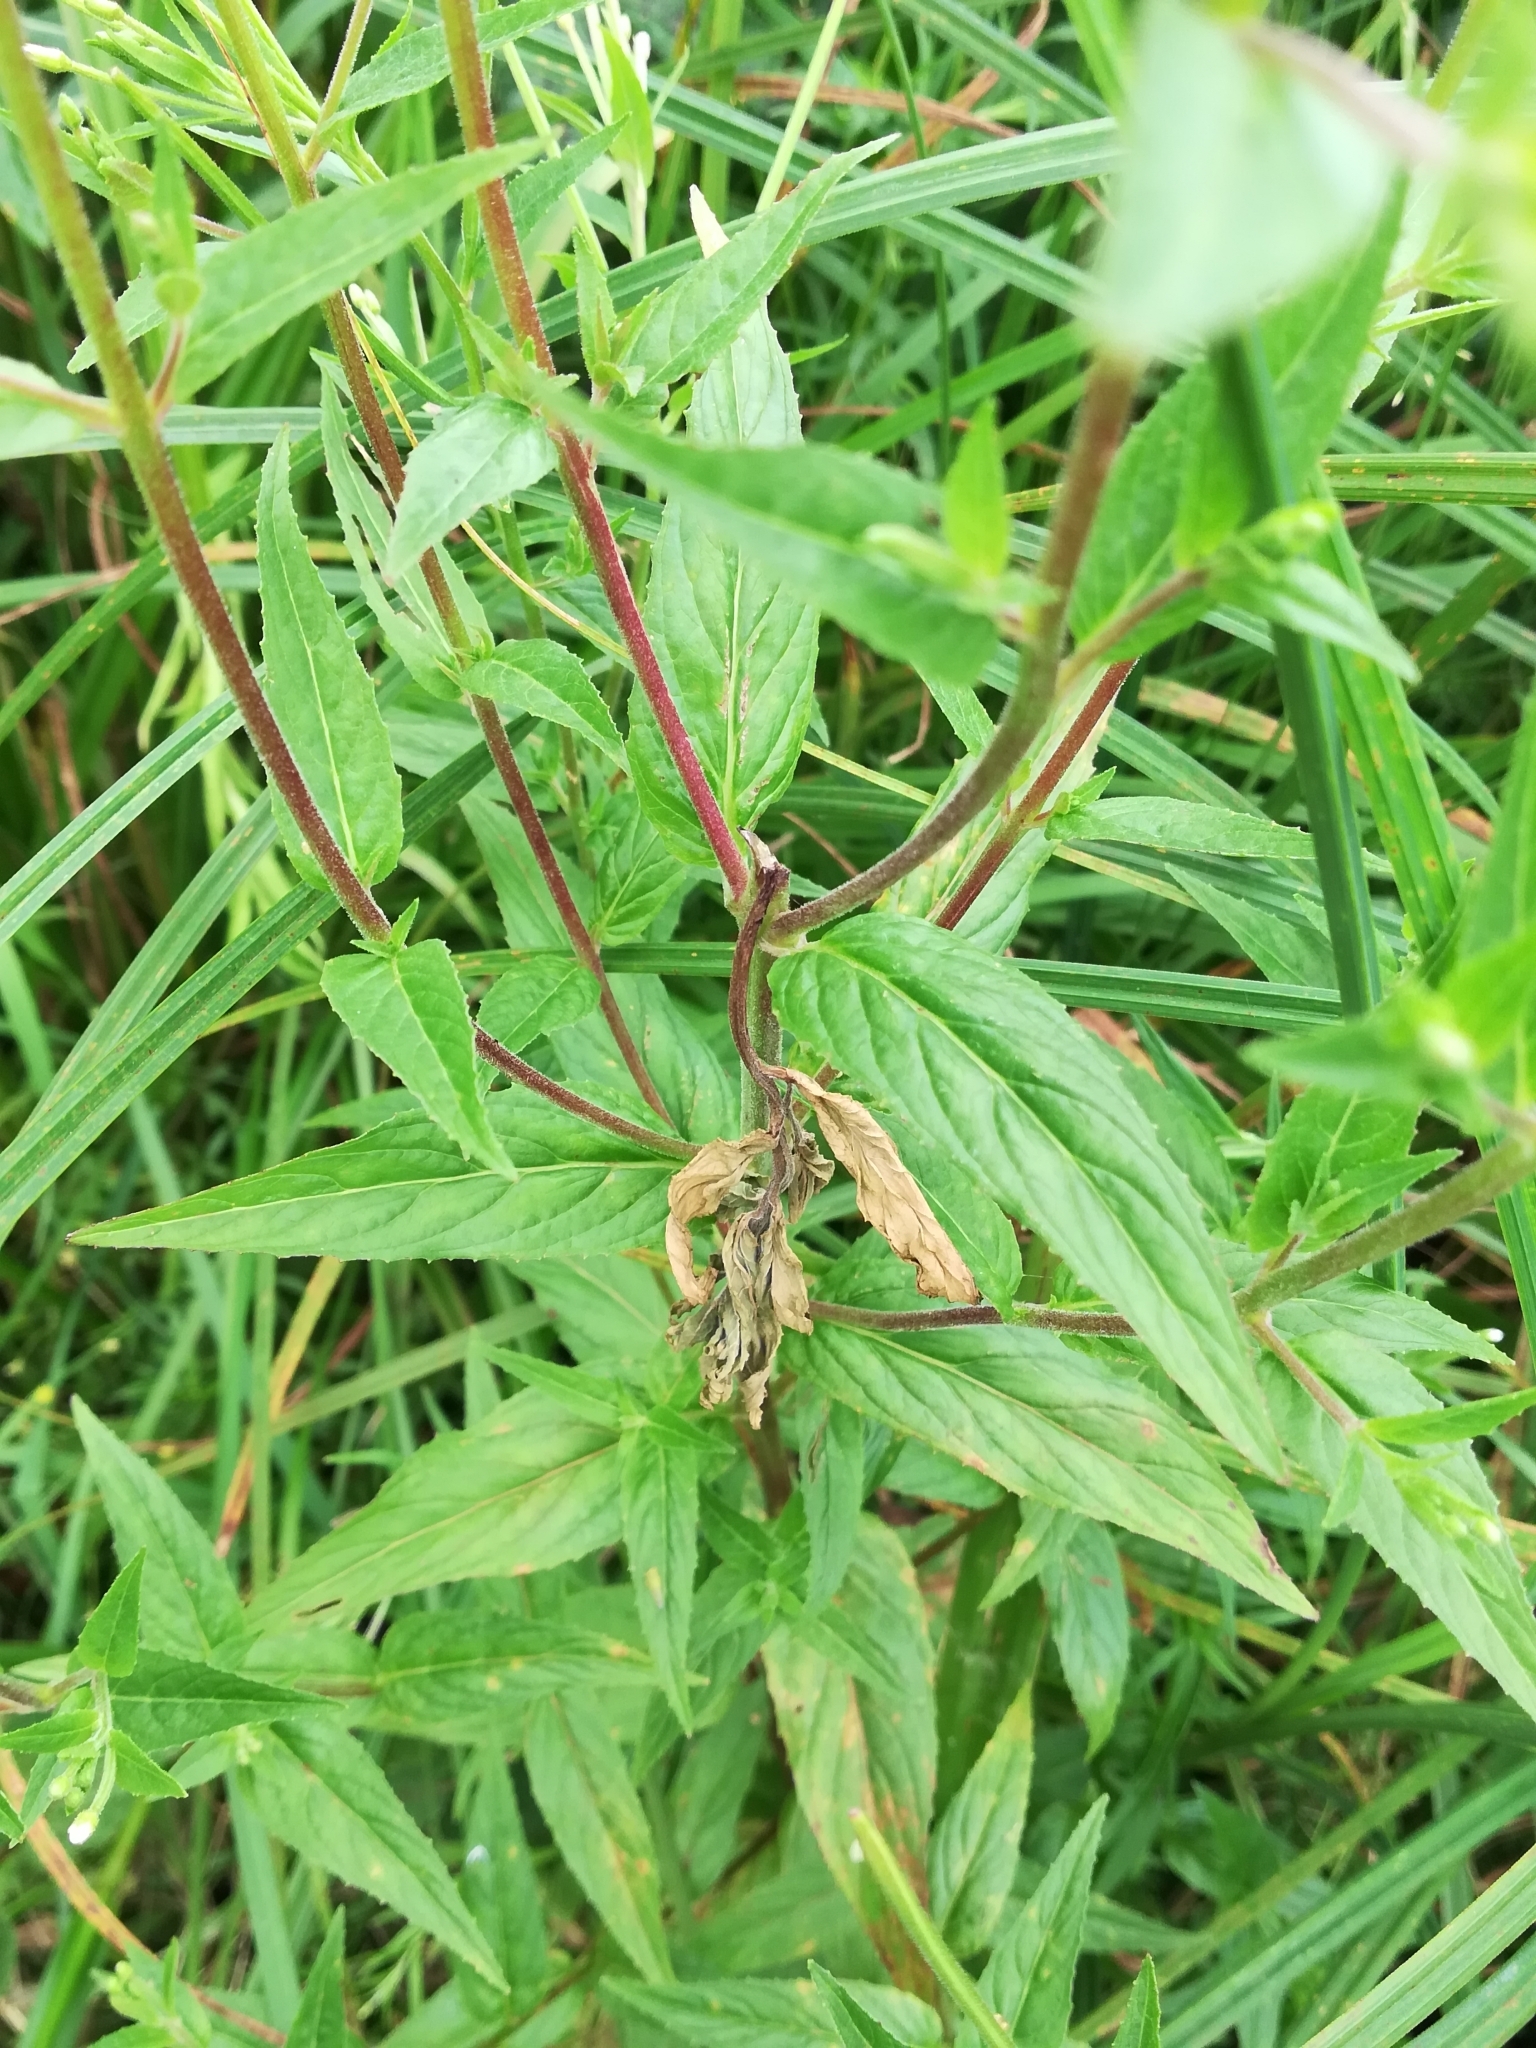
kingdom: Plantae
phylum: Tracheophyta
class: Magnoliopsida
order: Myrtales
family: Onagraceae
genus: Epilobium
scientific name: Epilobium pseudorubescens
